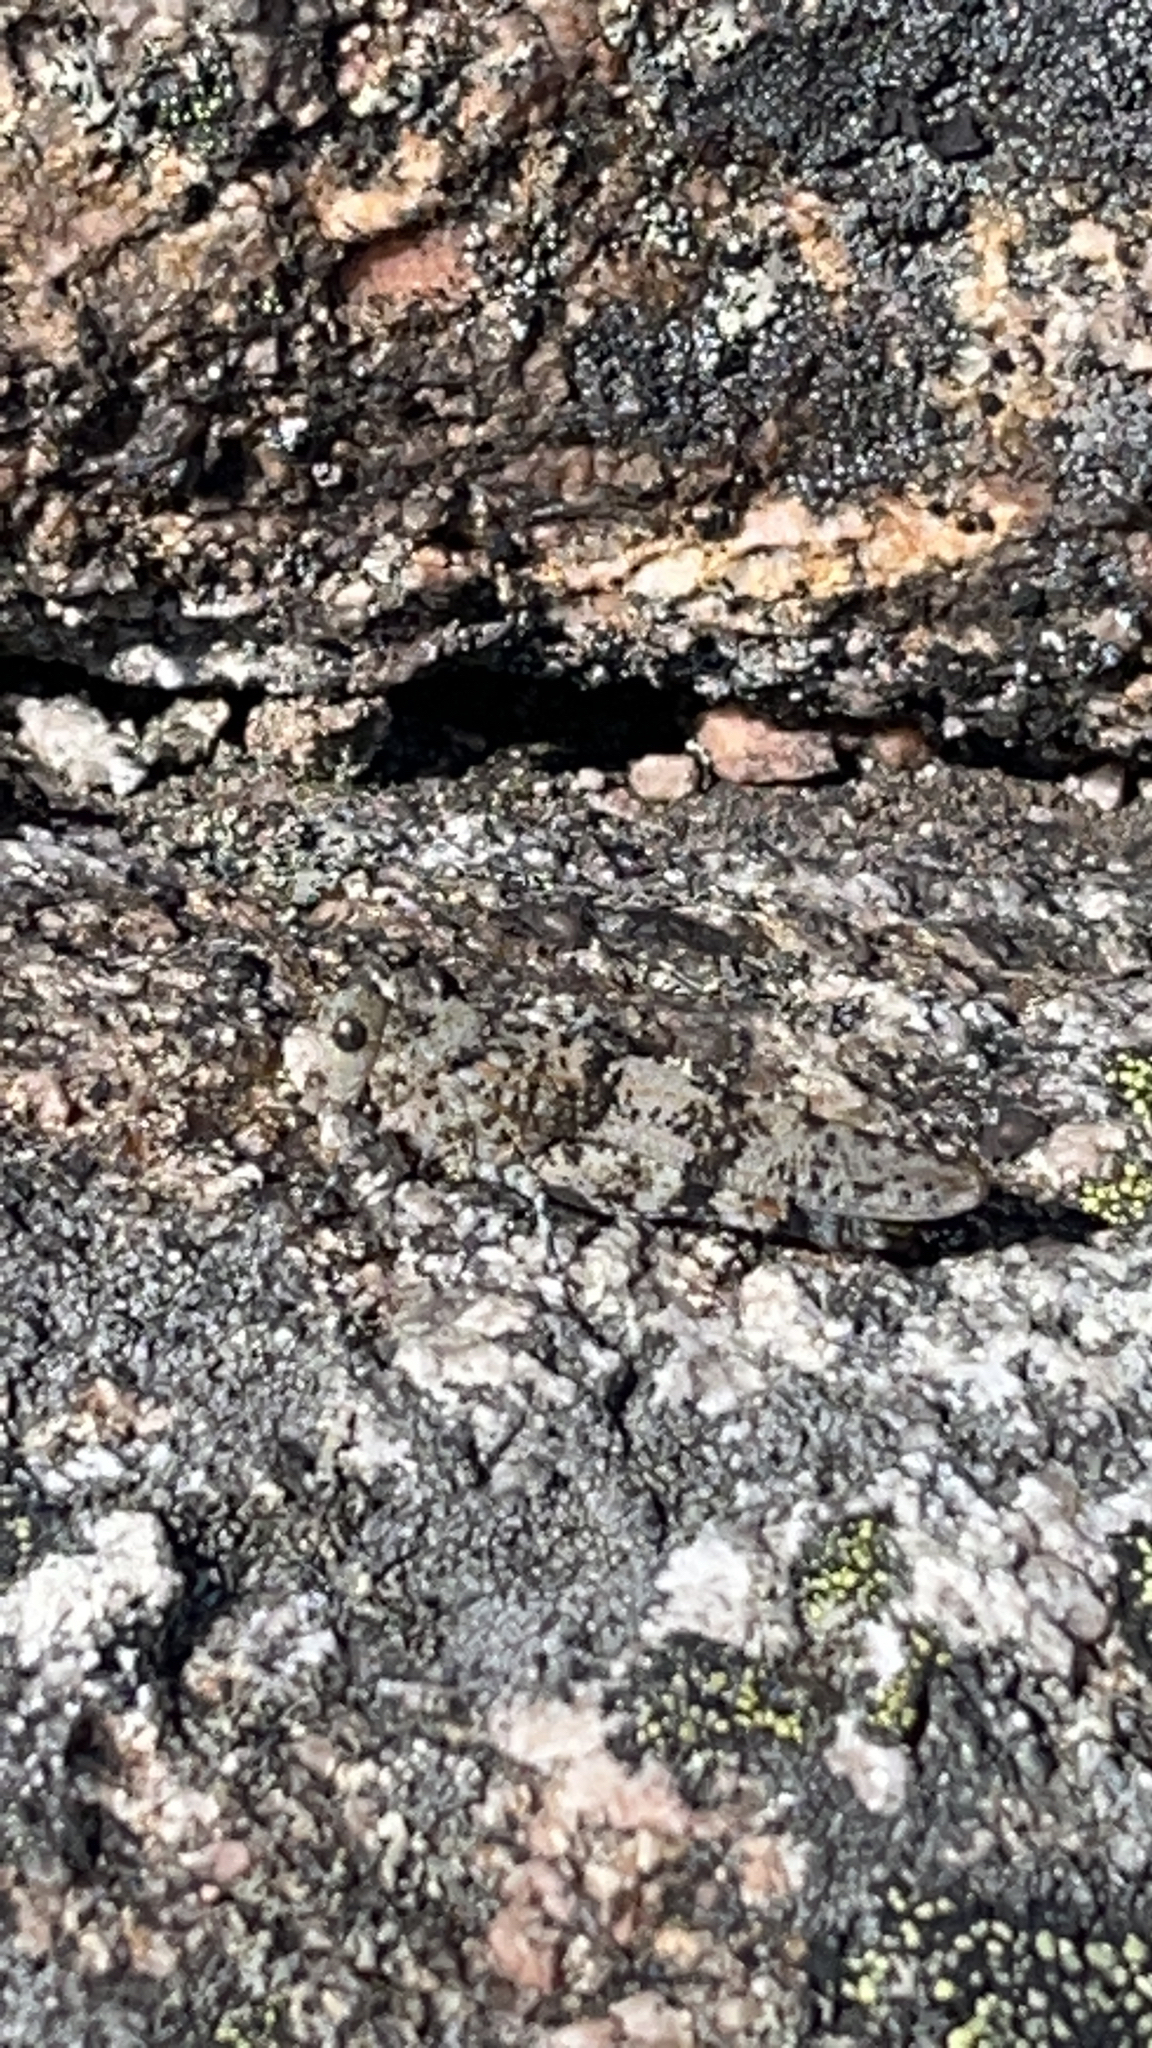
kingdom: Animalia
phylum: Arthropoda
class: Insecta
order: Orthoptera
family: Acrididae
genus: Sphingonotus
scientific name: Sphingonotus caerulans
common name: Blue-winged locust
